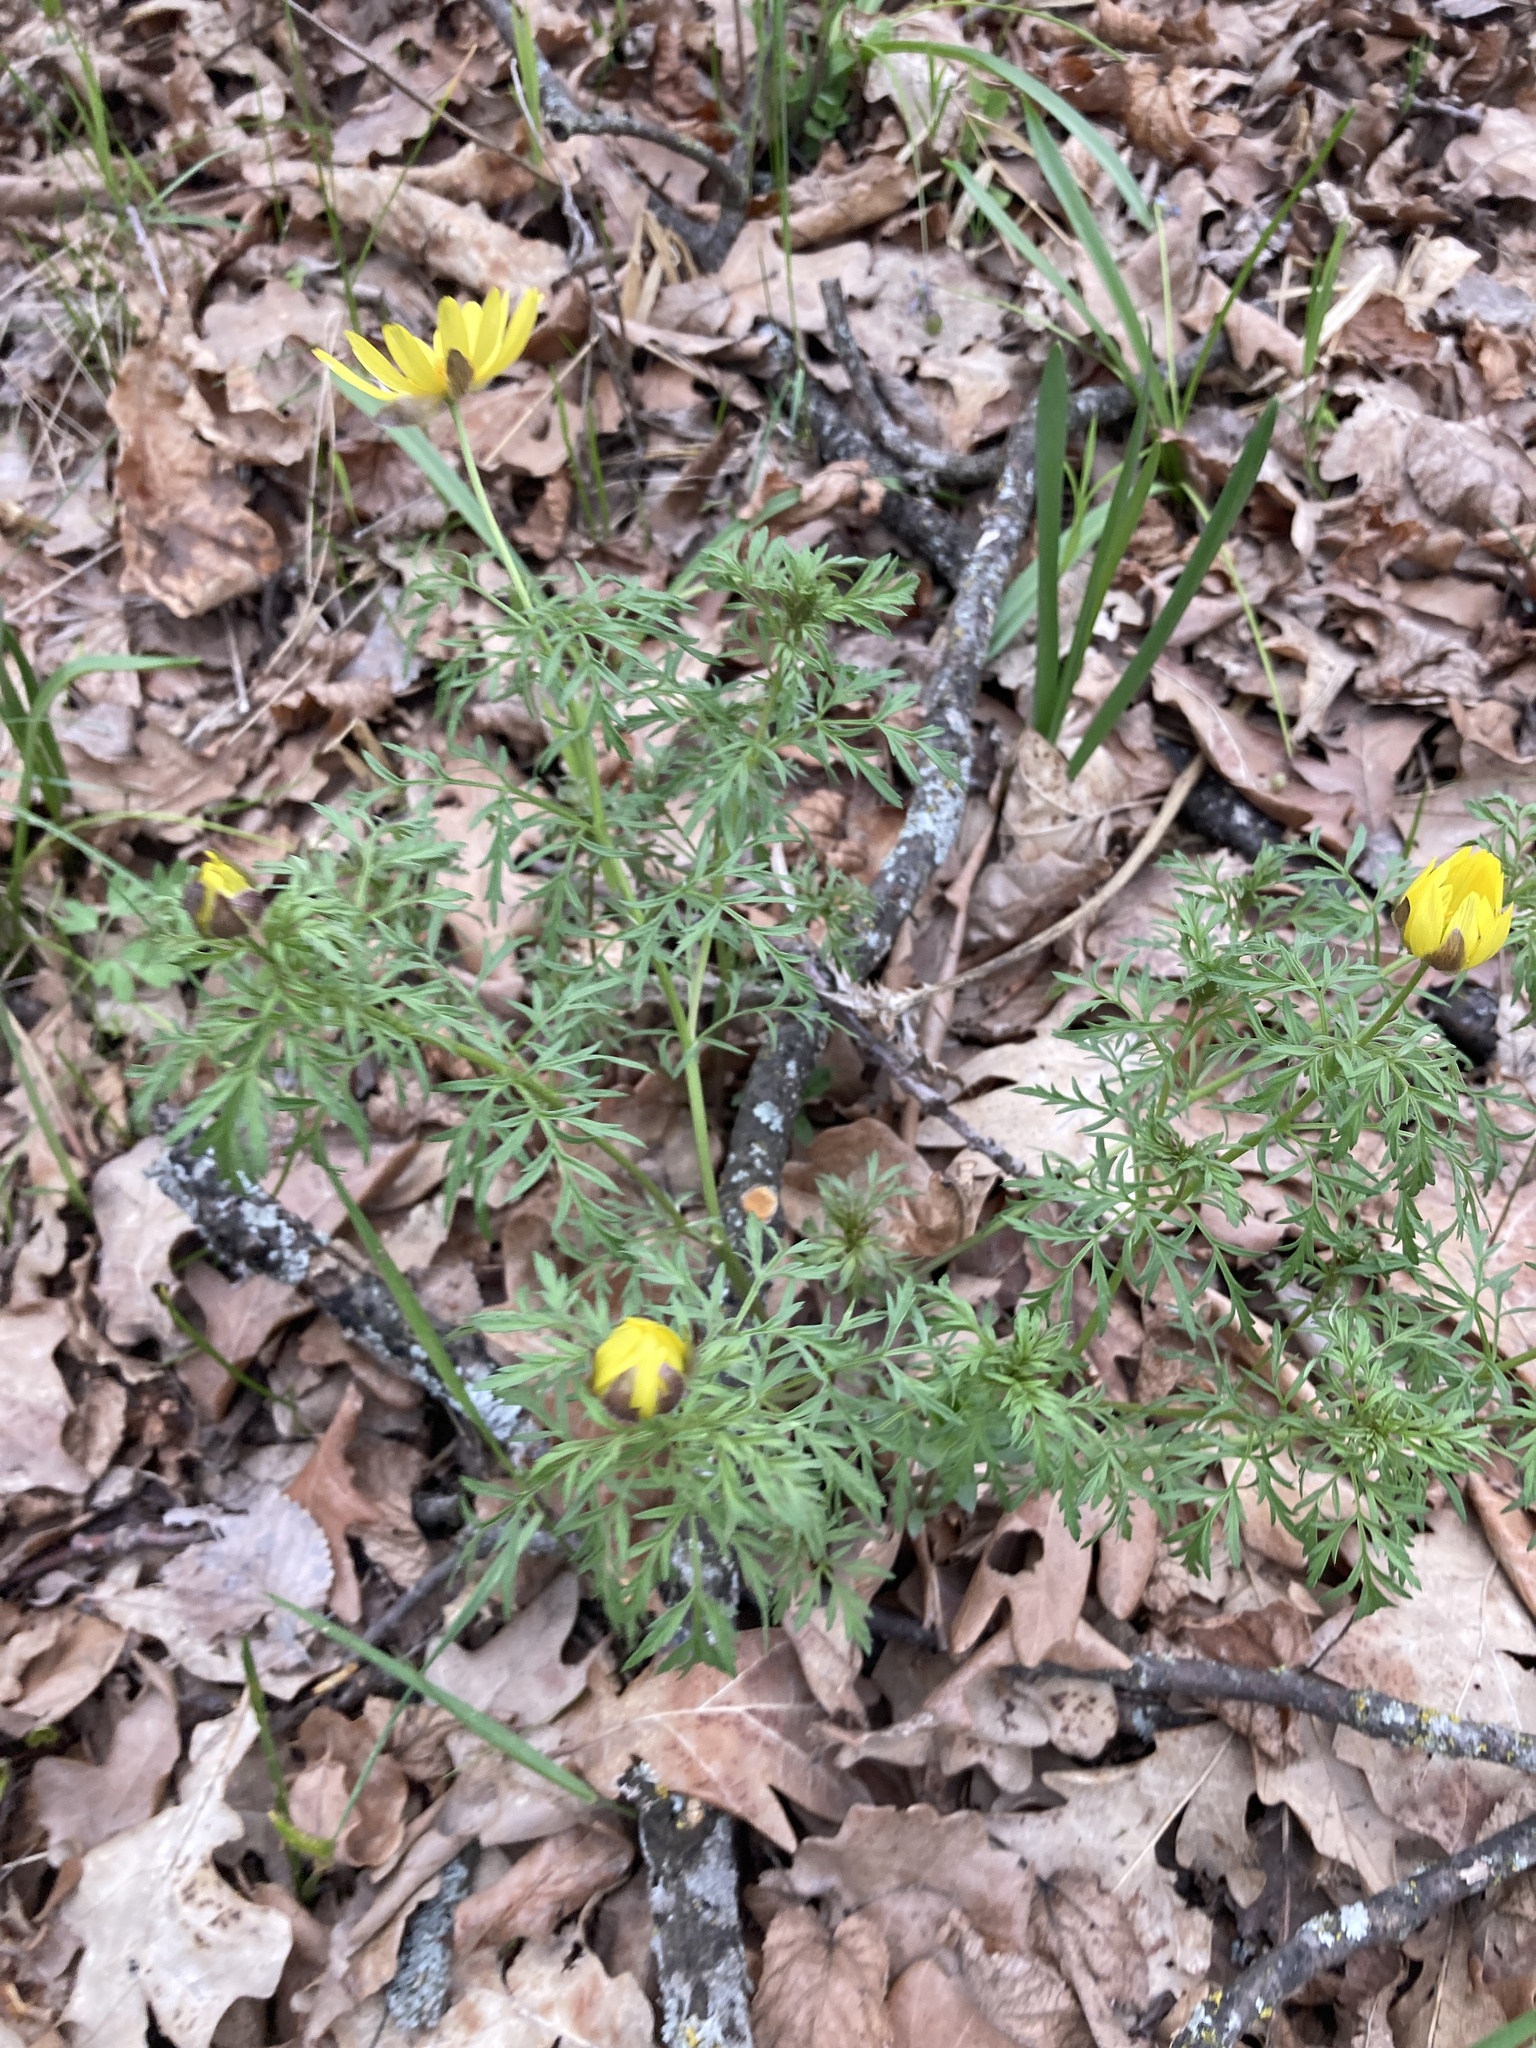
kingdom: Plantae
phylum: Tracheophyta
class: Magnoliopsida
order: Ranunculales
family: Ranunculaceae
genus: Adonis
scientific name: Adonis volgensis
